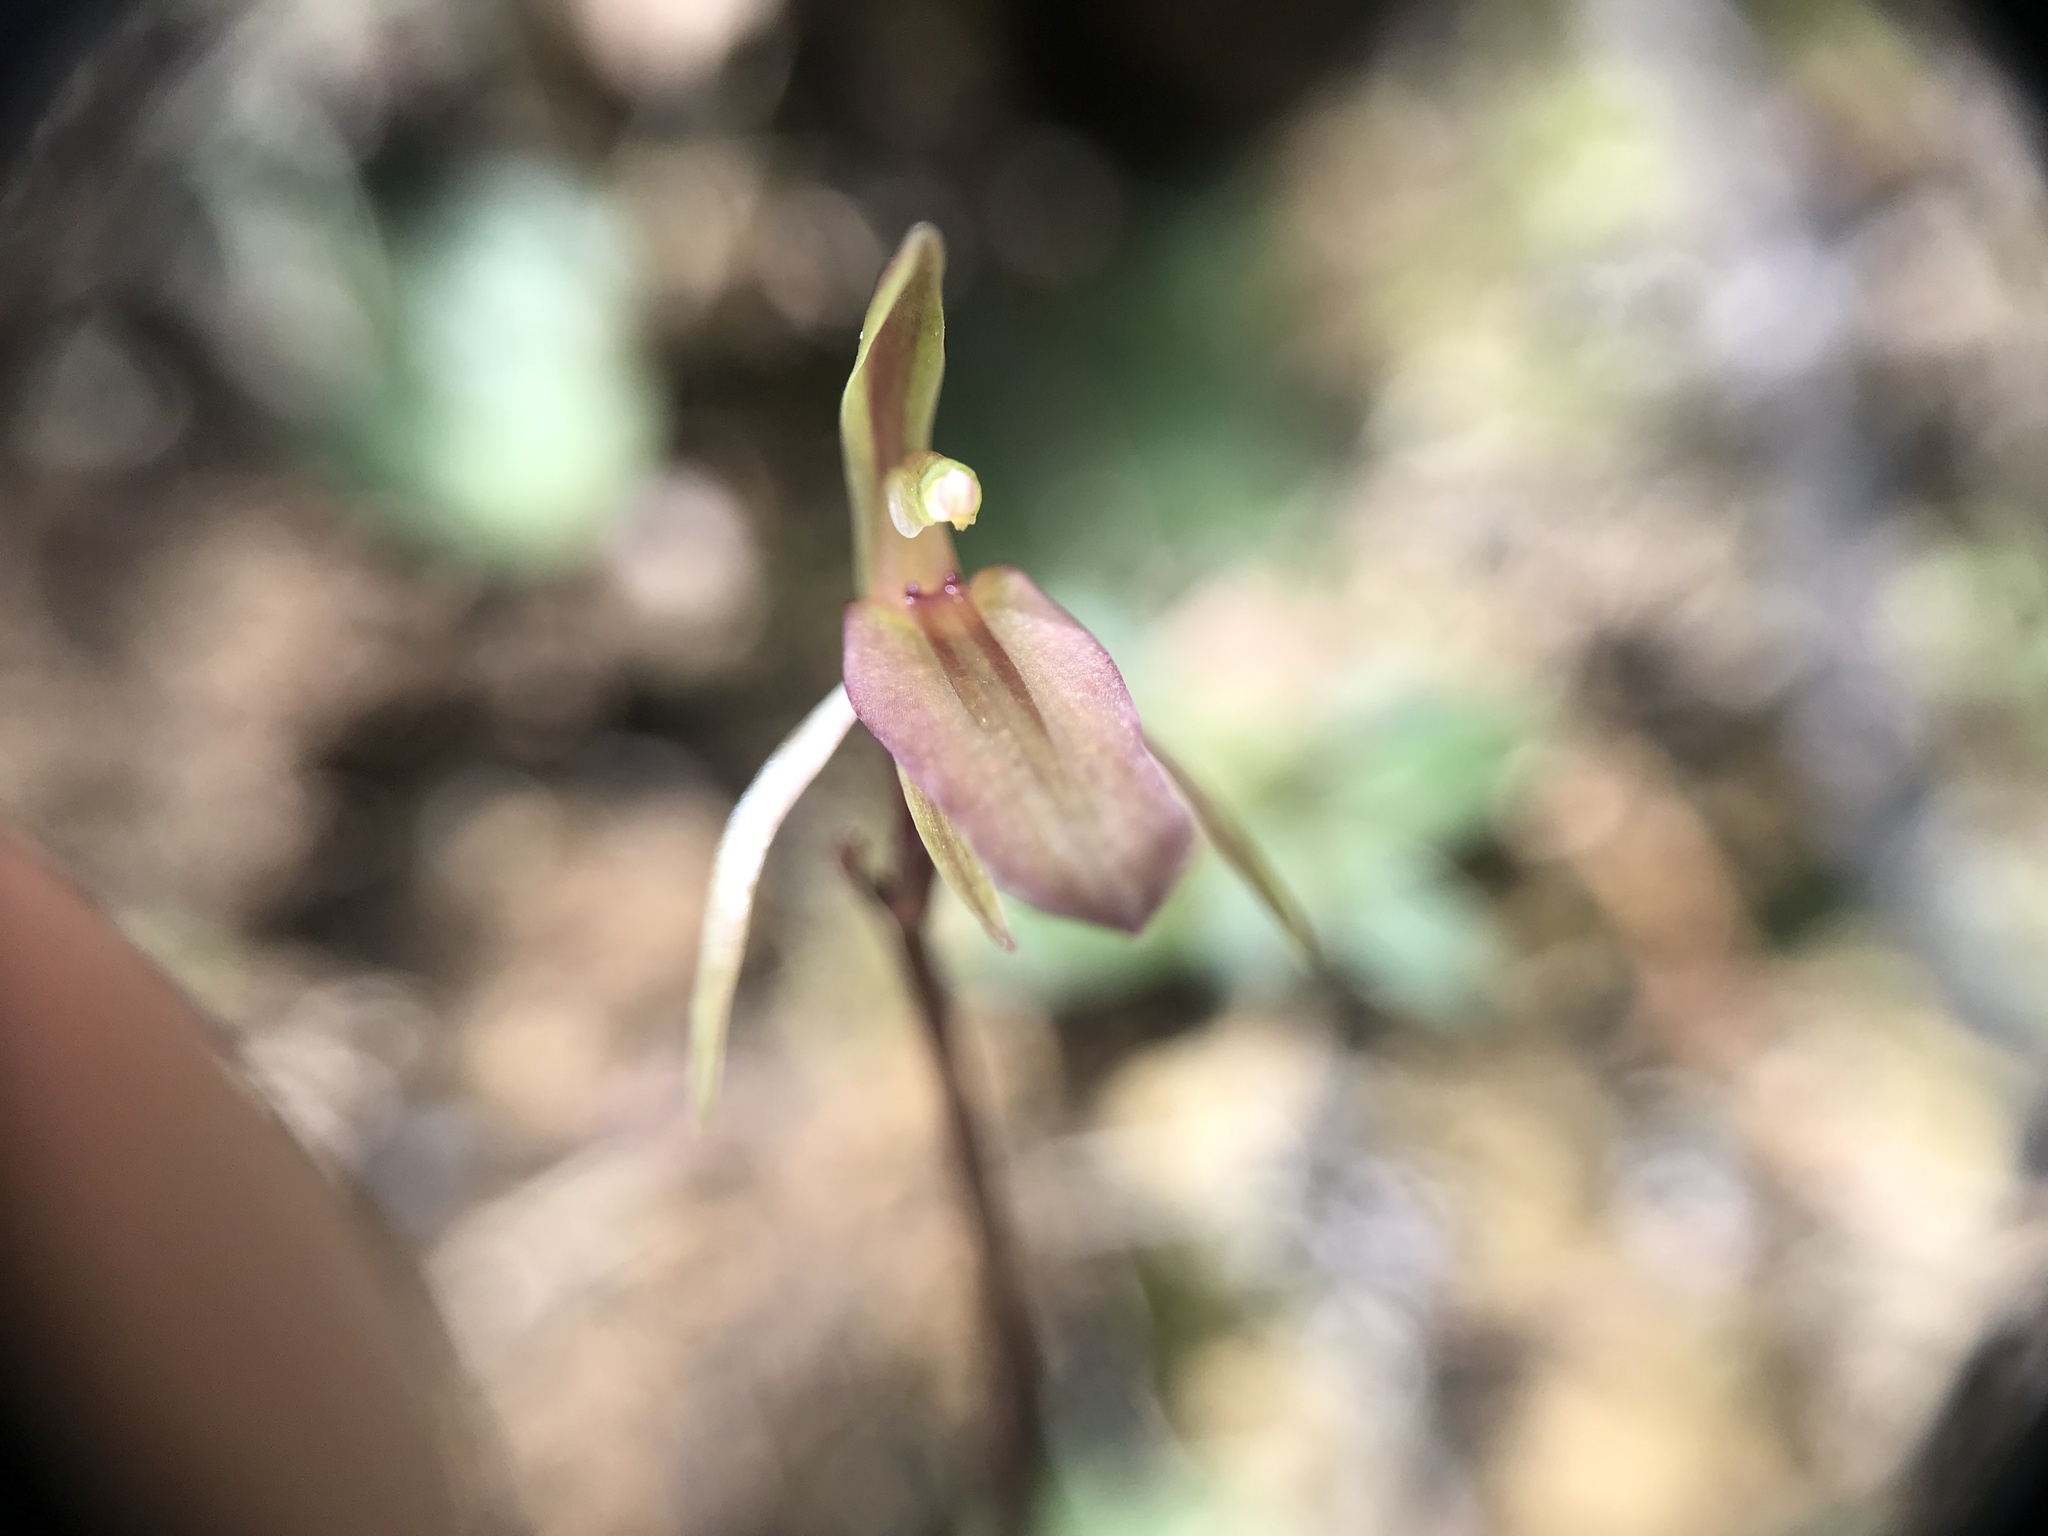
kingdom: Plantae
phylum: Tracheophyta
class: Liliopsida
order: Asparagales
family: Orchidaceae
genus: Cyrtostylis
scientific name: Cyrtostylis rotundifolia
